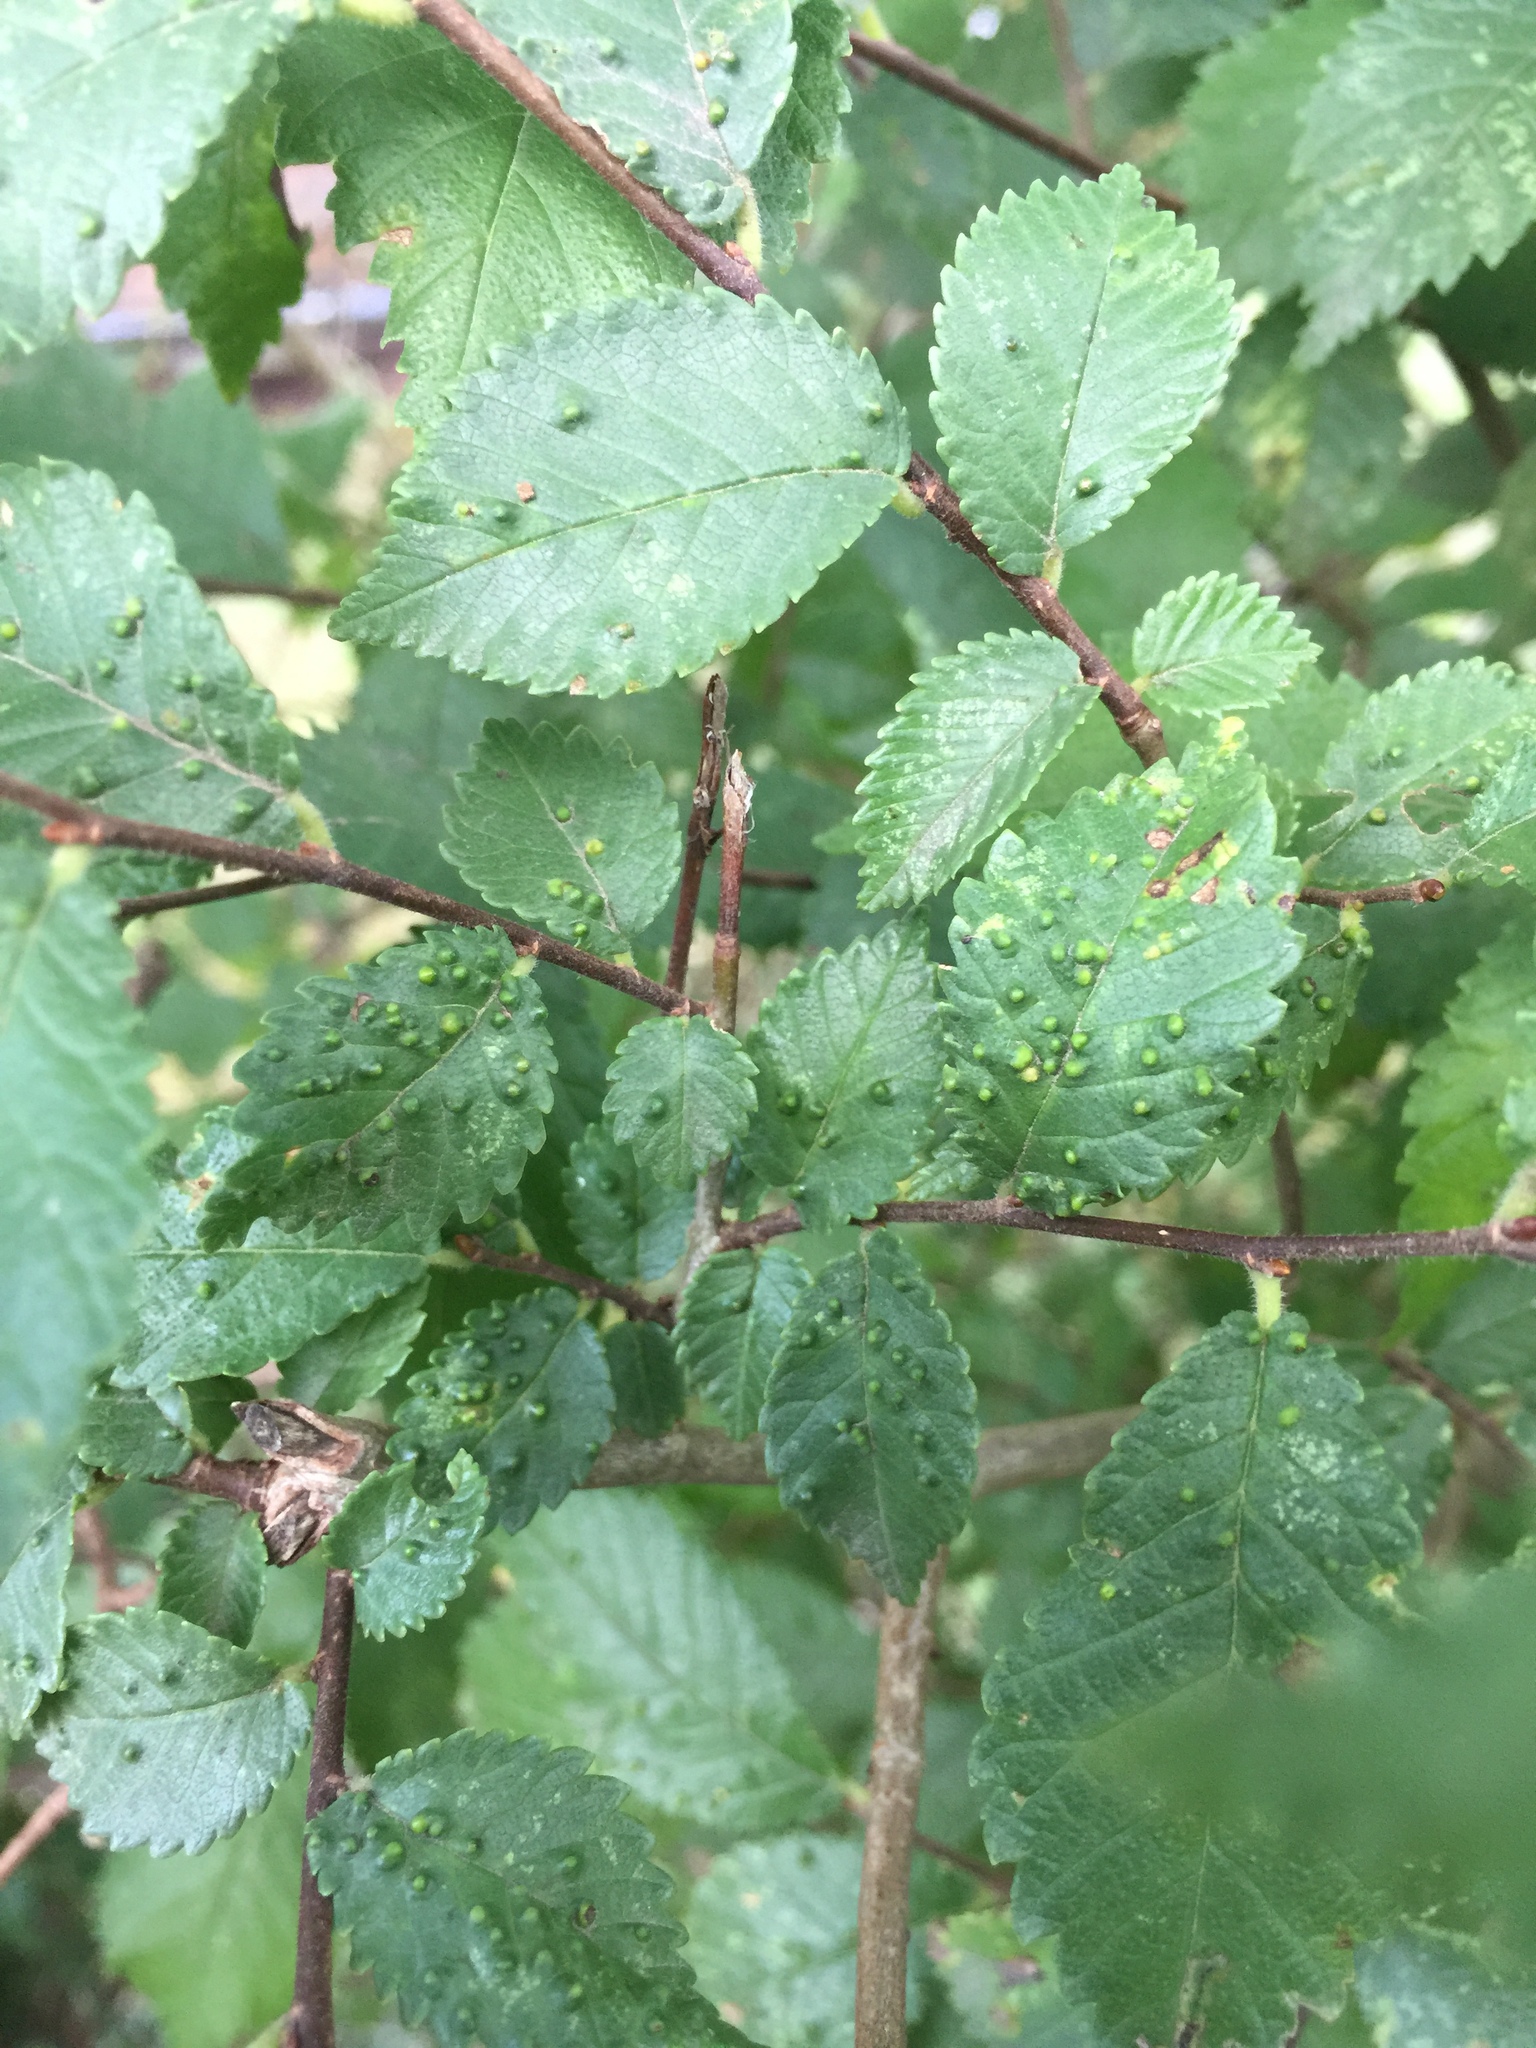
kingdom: Animalia
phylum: Arthropoda
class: Arachnida
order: Trombidiformes
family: Eriophyidae
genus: Aceria
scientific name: Aceria brevipunctata
